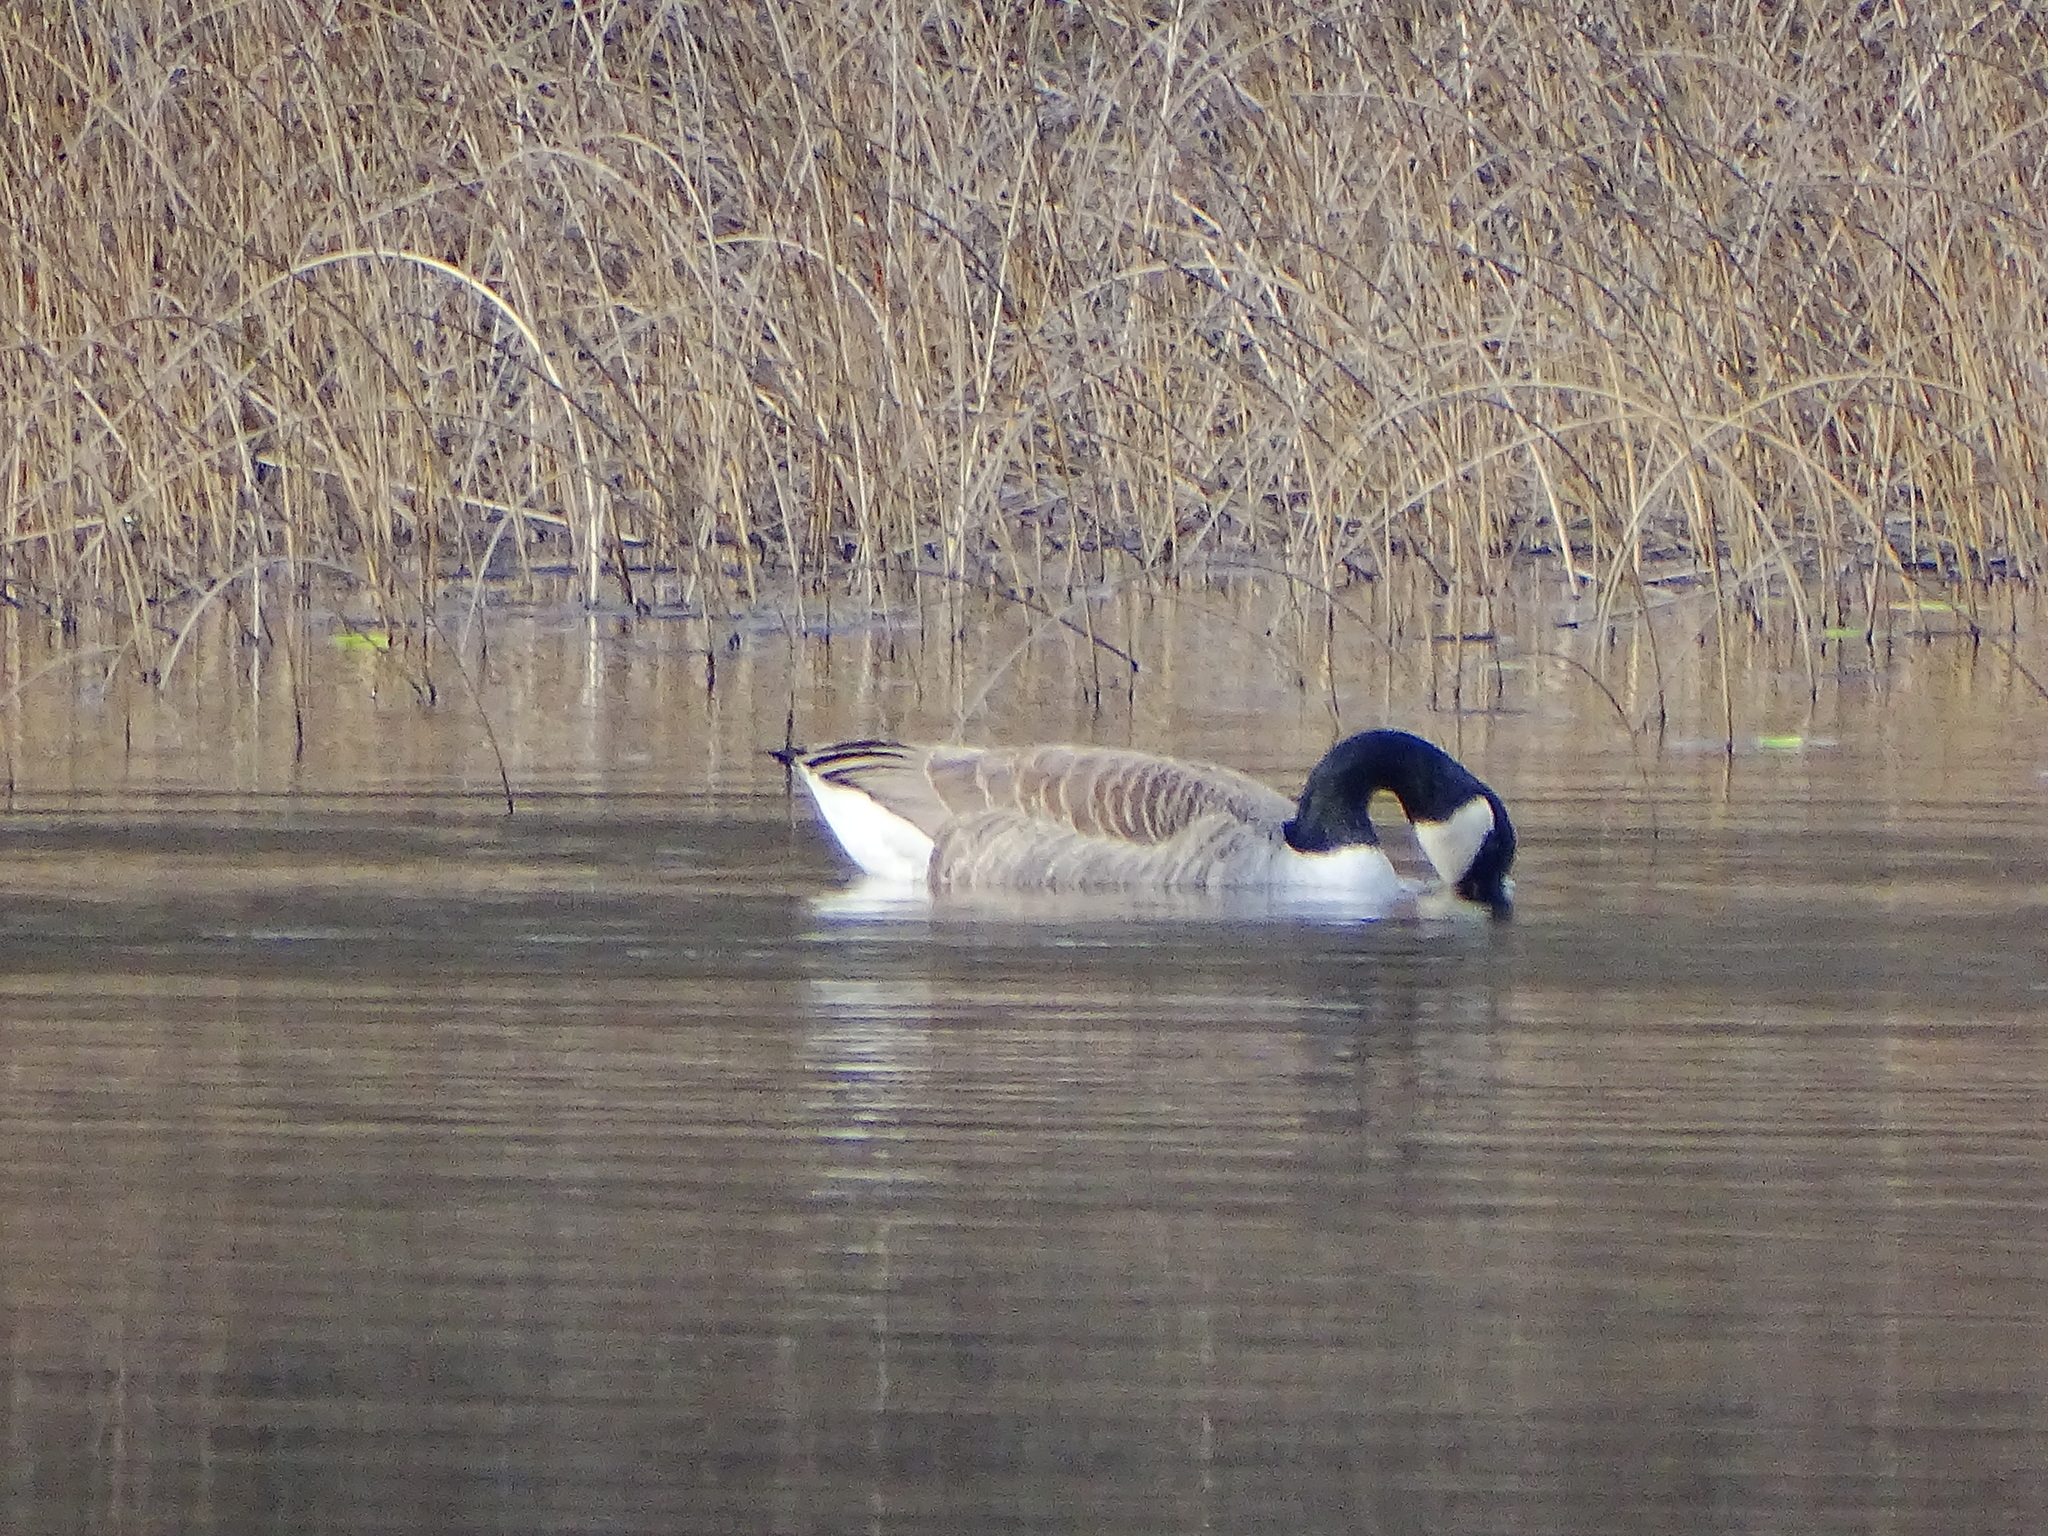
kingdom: Animalia
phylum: Chordata
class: Aves
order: Anseriformes
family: Anatidae
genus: Branta
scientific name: Branta canadensis
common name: Canada goose
